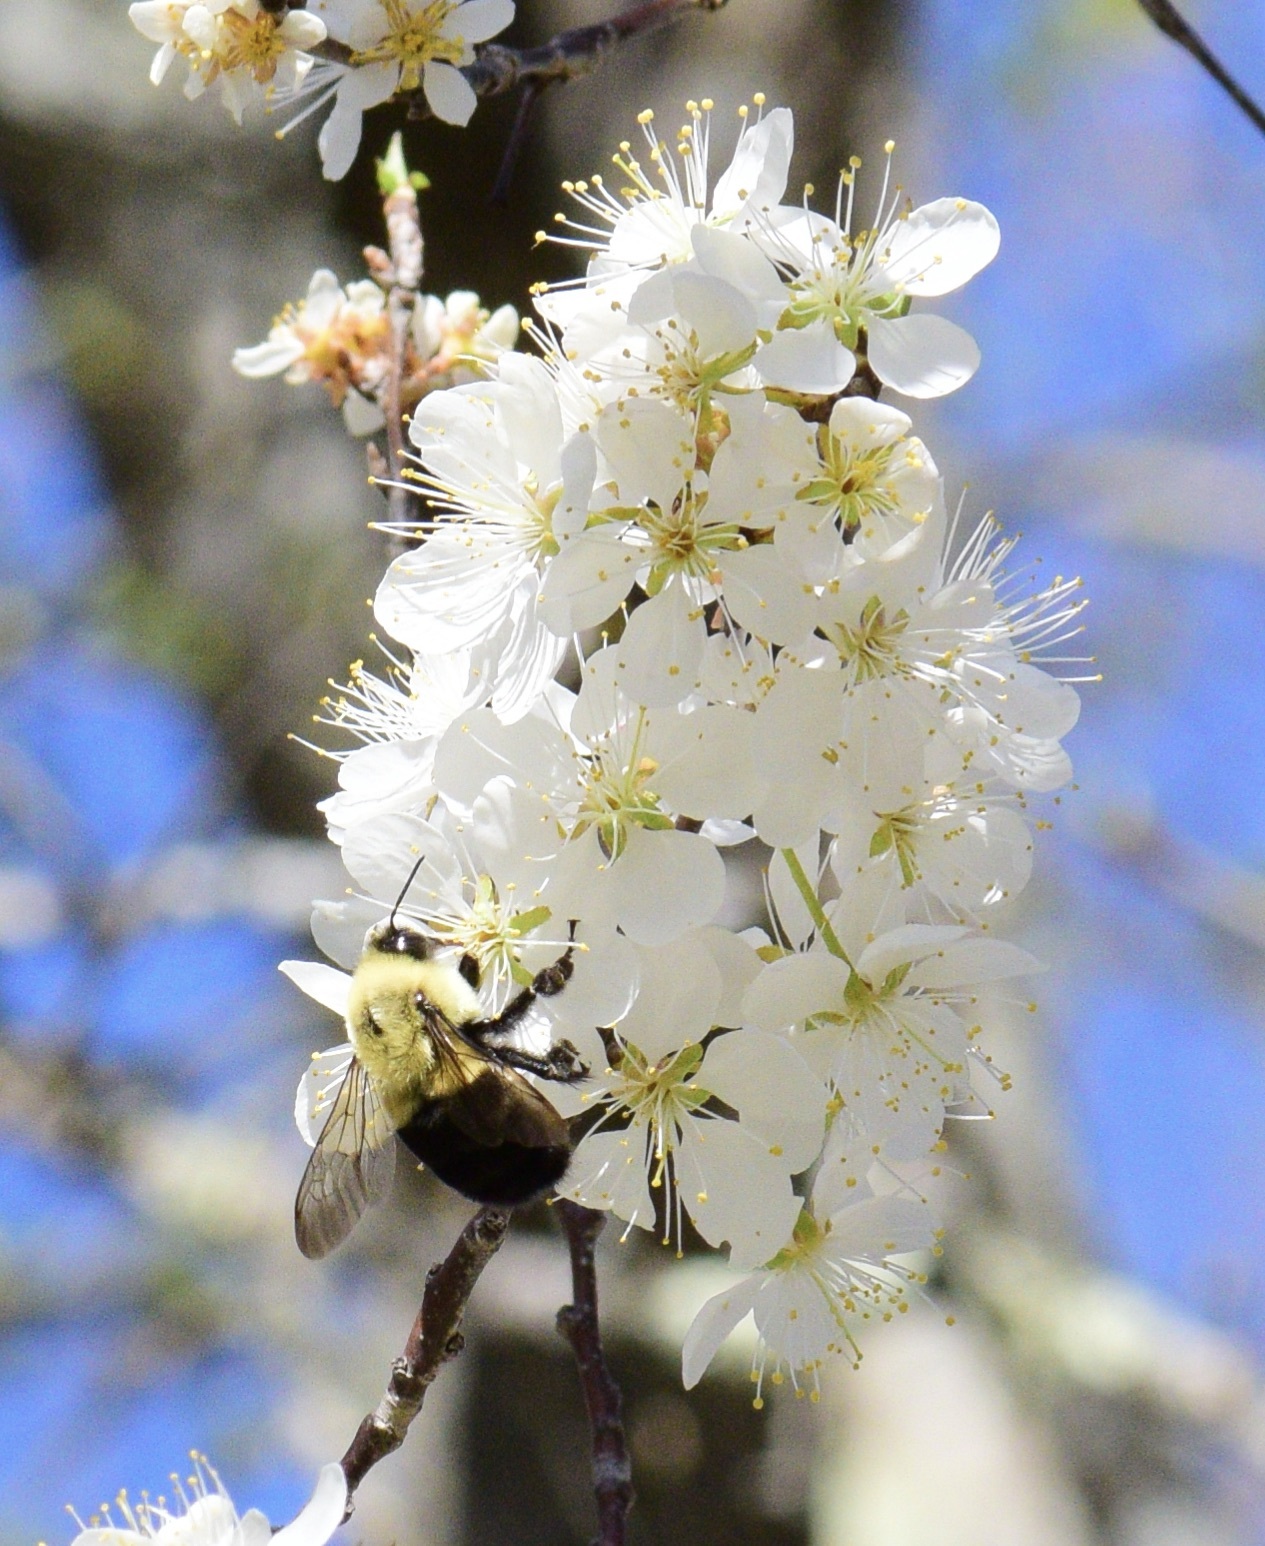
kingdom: Animalia
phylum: Arthropoda
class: Insecta
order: Hymenoptera
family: Apidae
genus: Bombus
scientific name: Bombus impatiens
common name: Common eastern bumble bee
